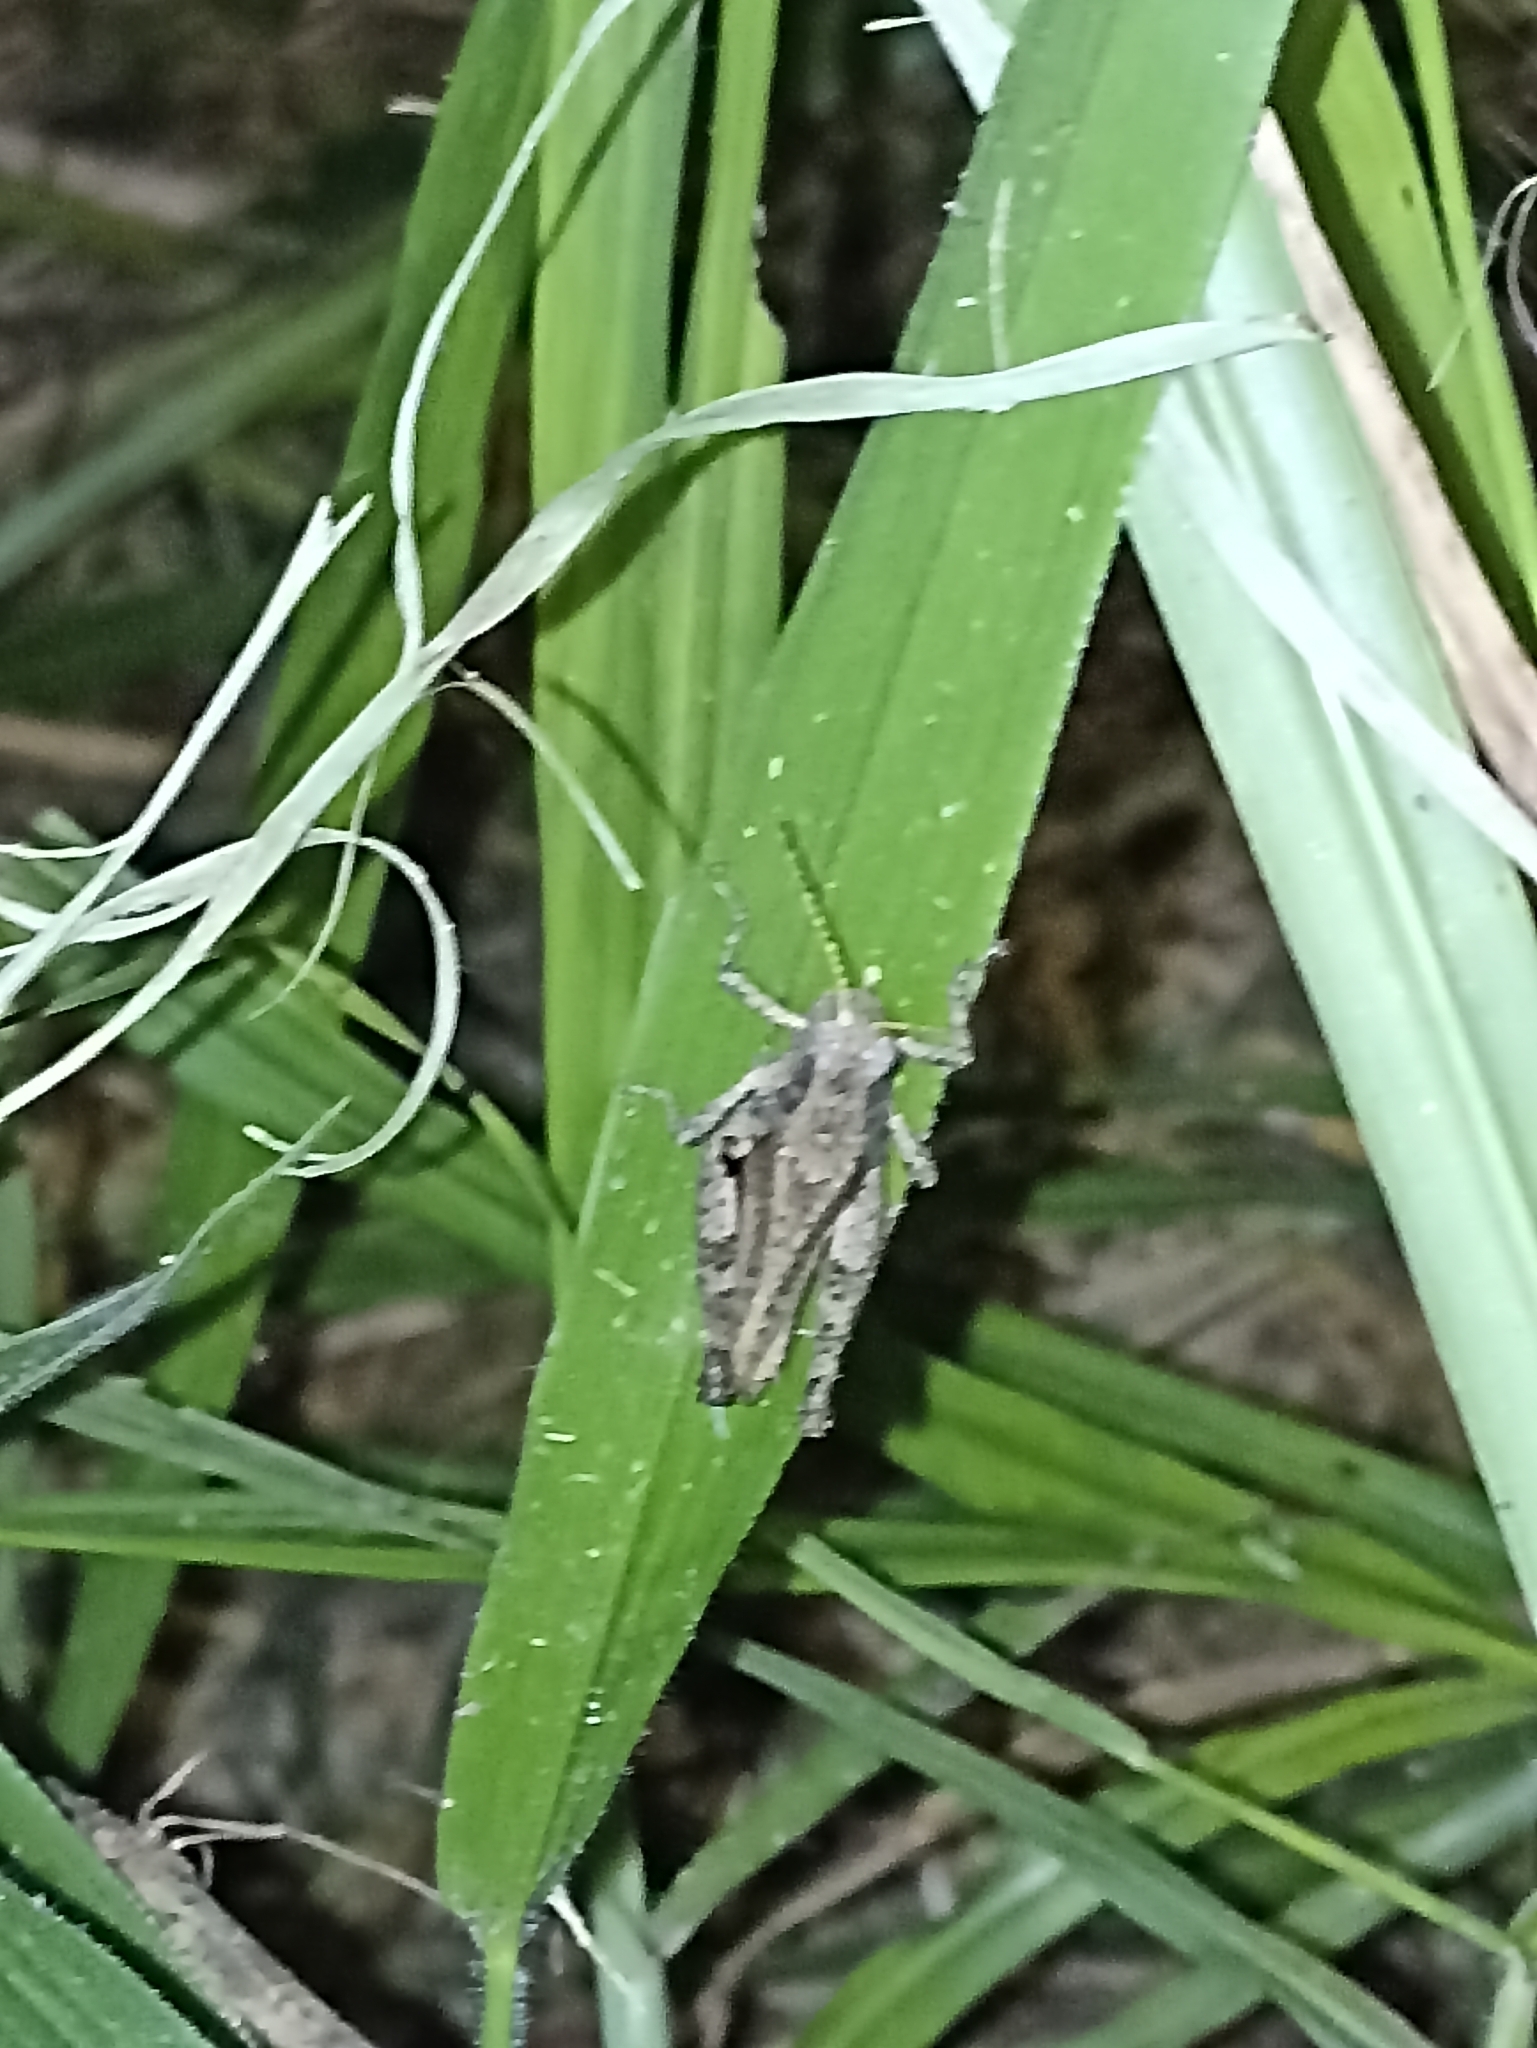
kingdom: Animalia
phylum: Arthropoda
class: Insecta
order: Orthoptera
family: Acrididae
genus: Ronderosia
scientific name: Ronderosia bergii
